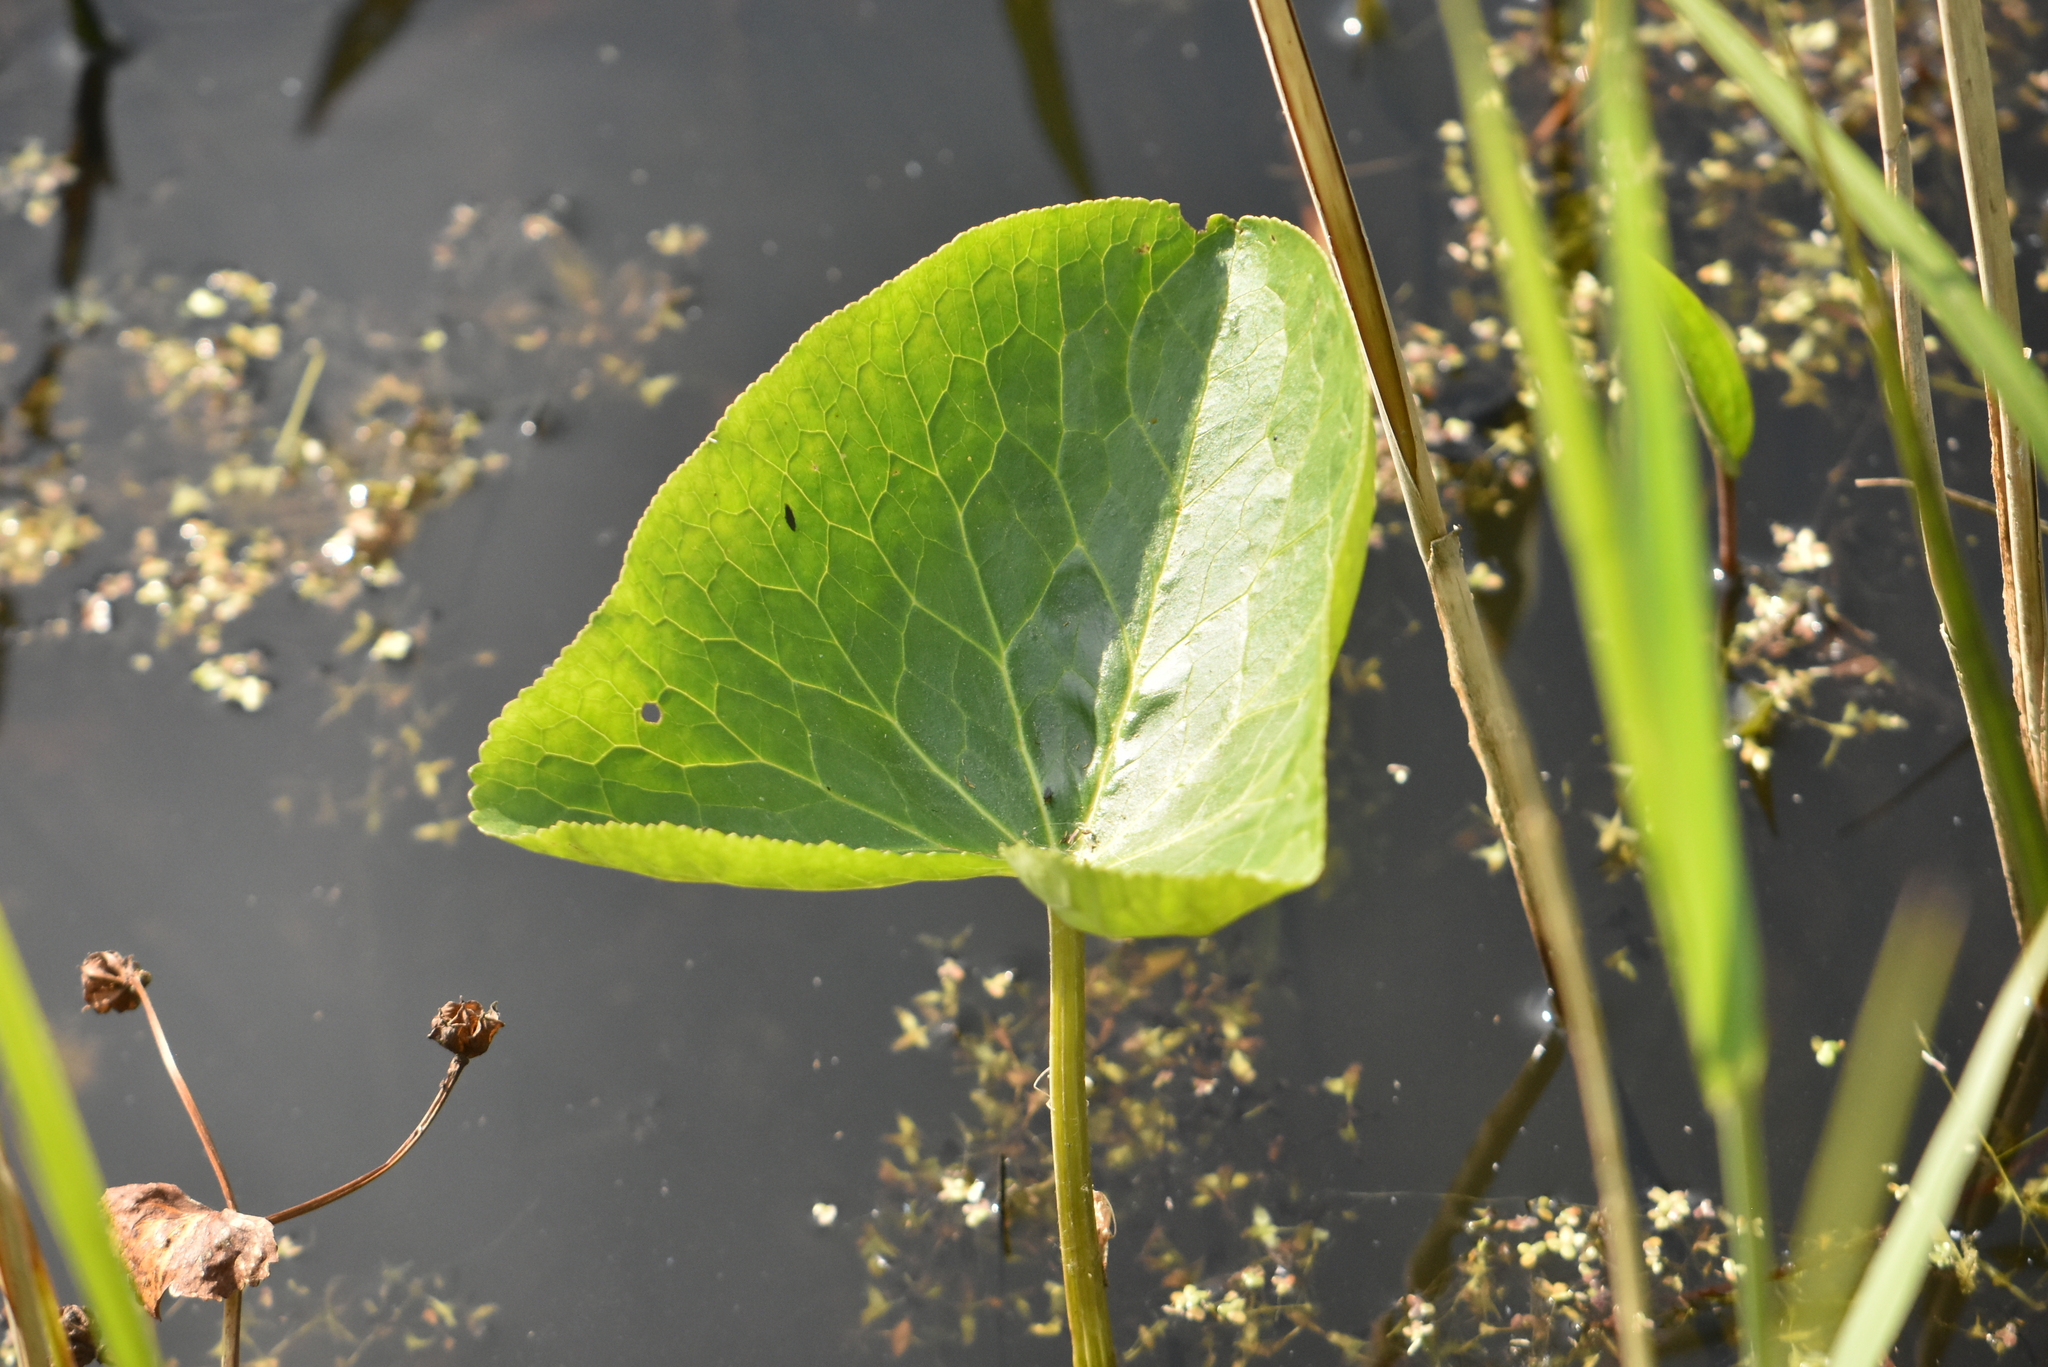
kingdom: Plantae
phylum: Tracheophyta
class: Magnoliopsida
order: Ranunculales
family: Ranunculaceae
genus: Caltha
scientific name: Caltha palustris
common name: Marsh marigold
